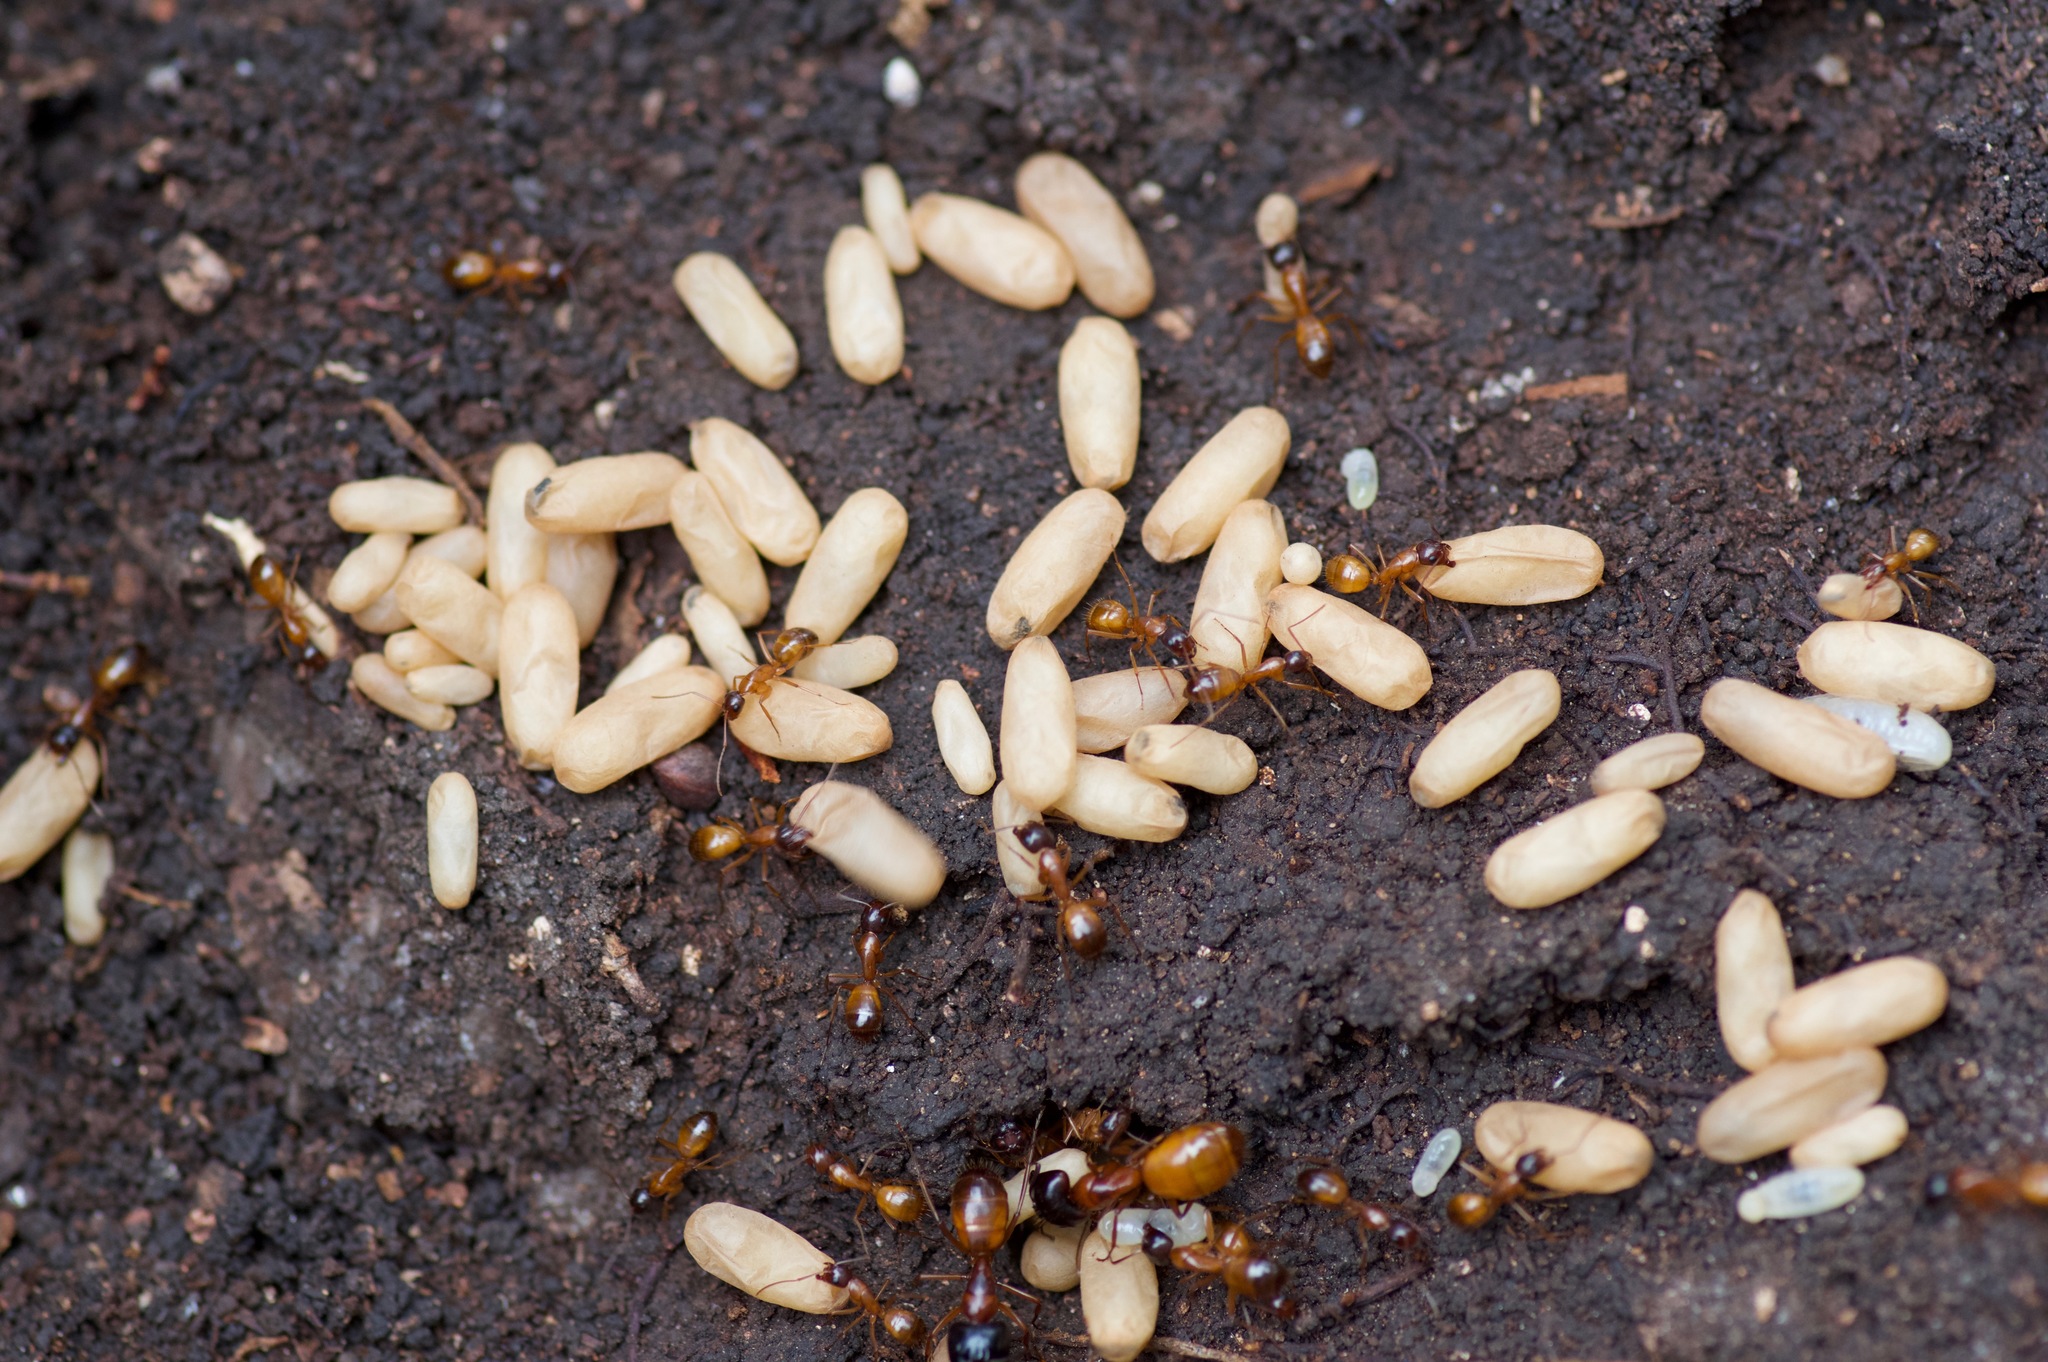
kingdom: Animalia
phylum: Arthropoda
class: Insecta
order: Hymenoptera
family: Formicidae
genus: Camponotus
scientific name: Camponotus sansabeanus
